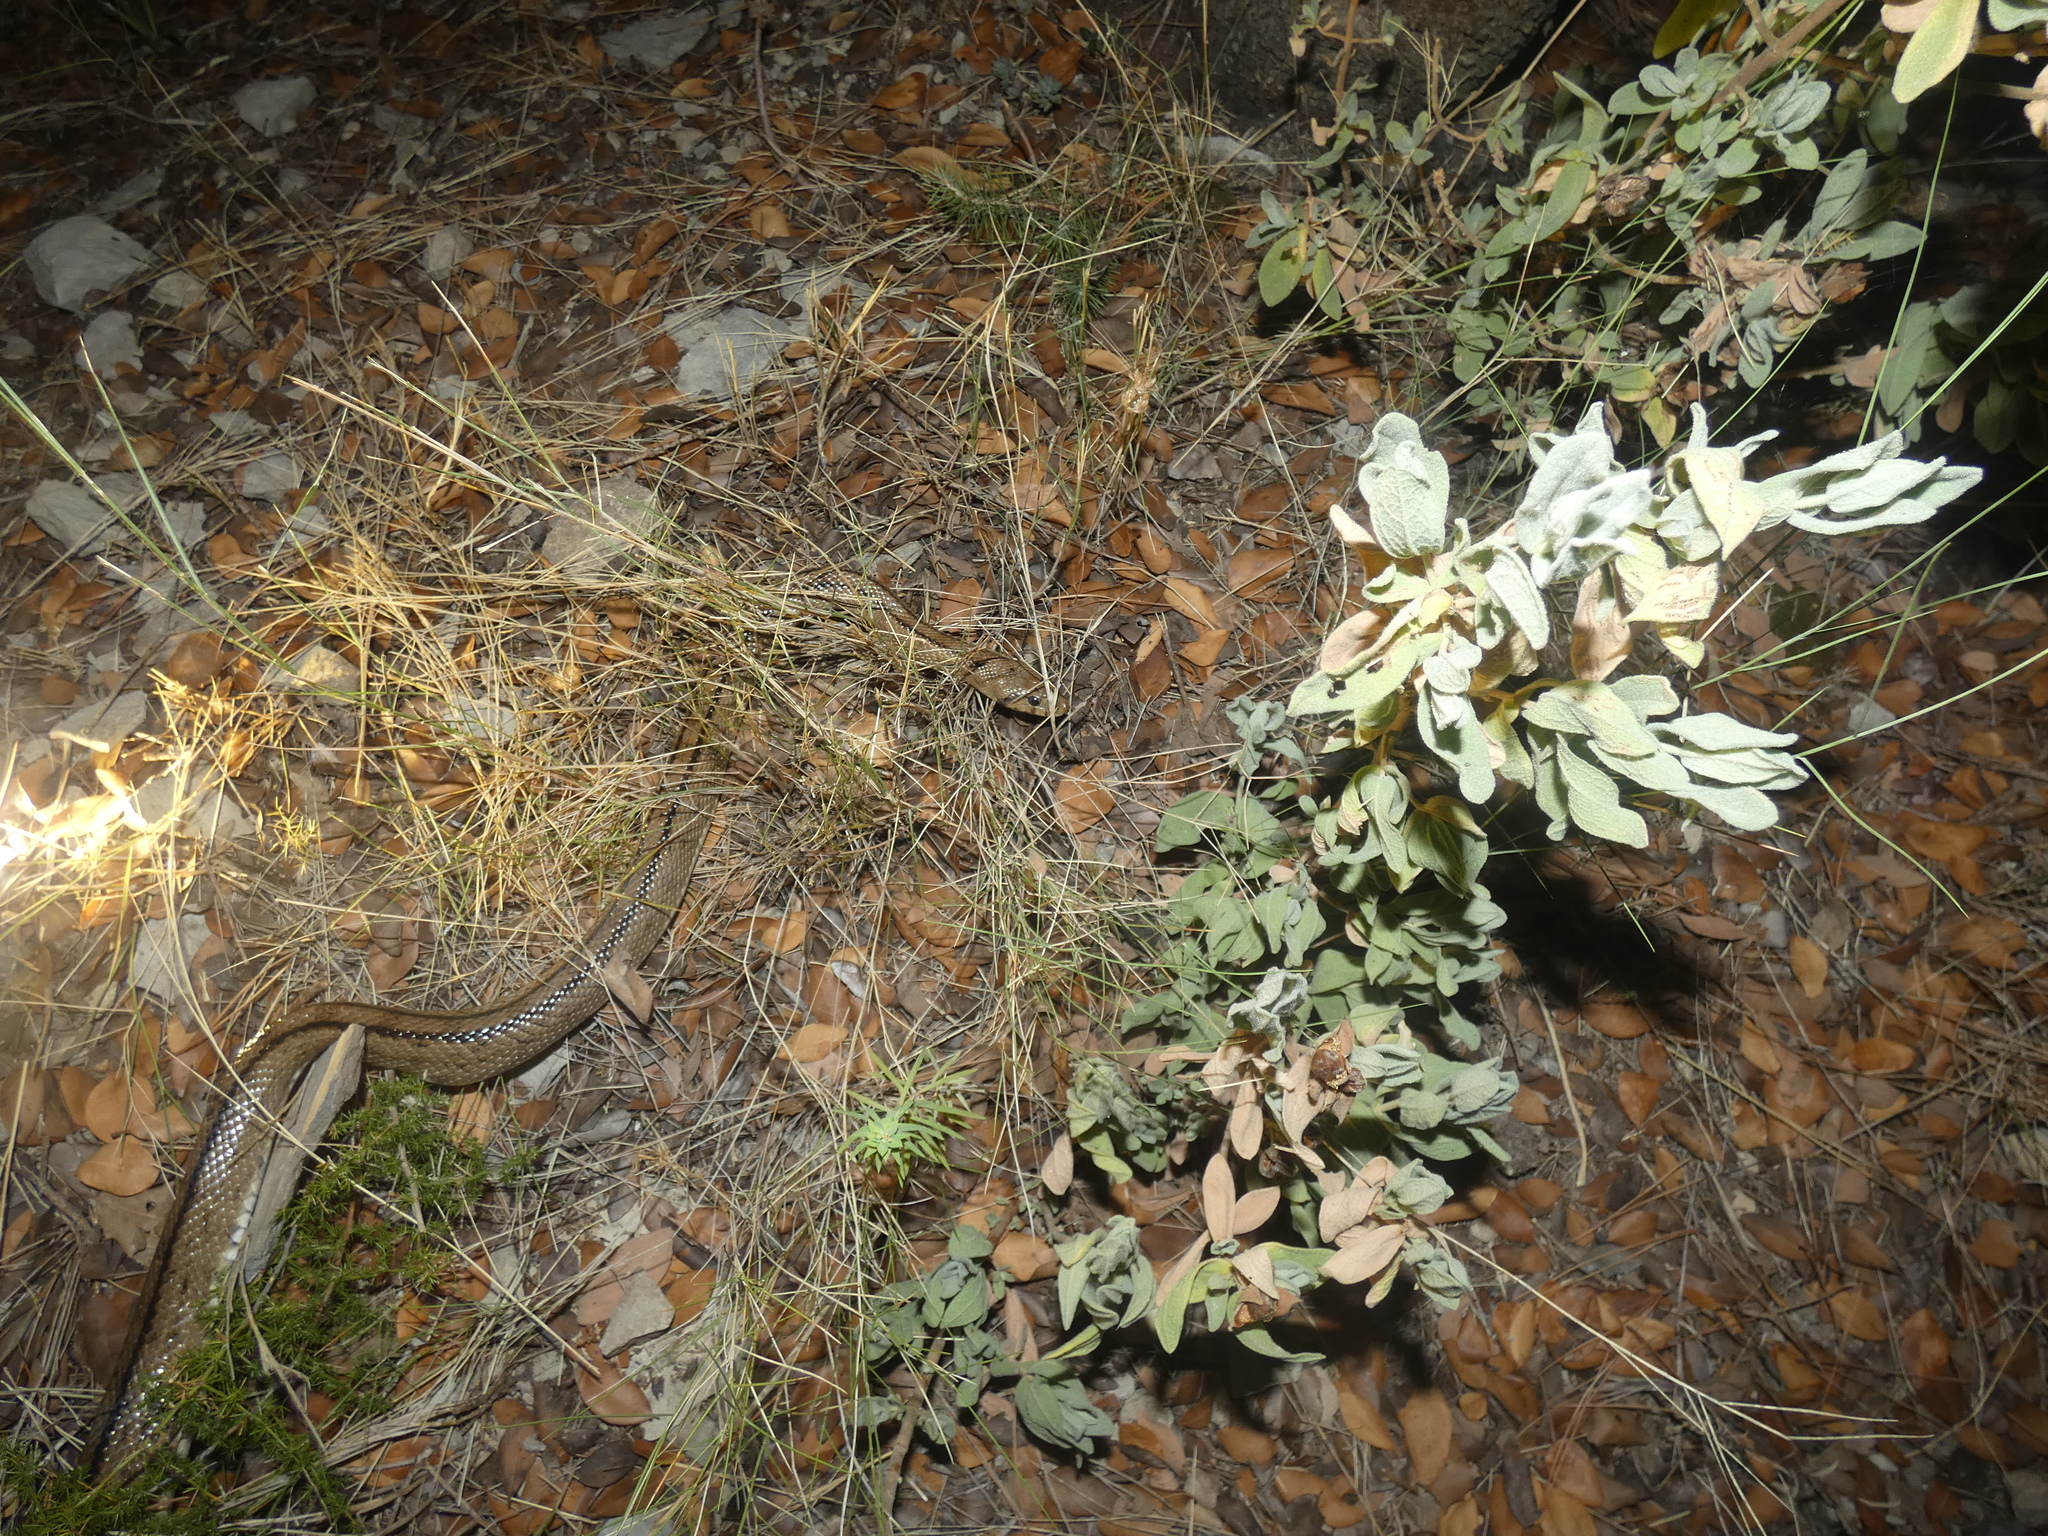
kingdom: Animalia
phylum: Chordata
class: Squamata
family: Colubridae
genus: Zamenis
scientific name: Zamenis scalaris
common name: Ladder snakes
